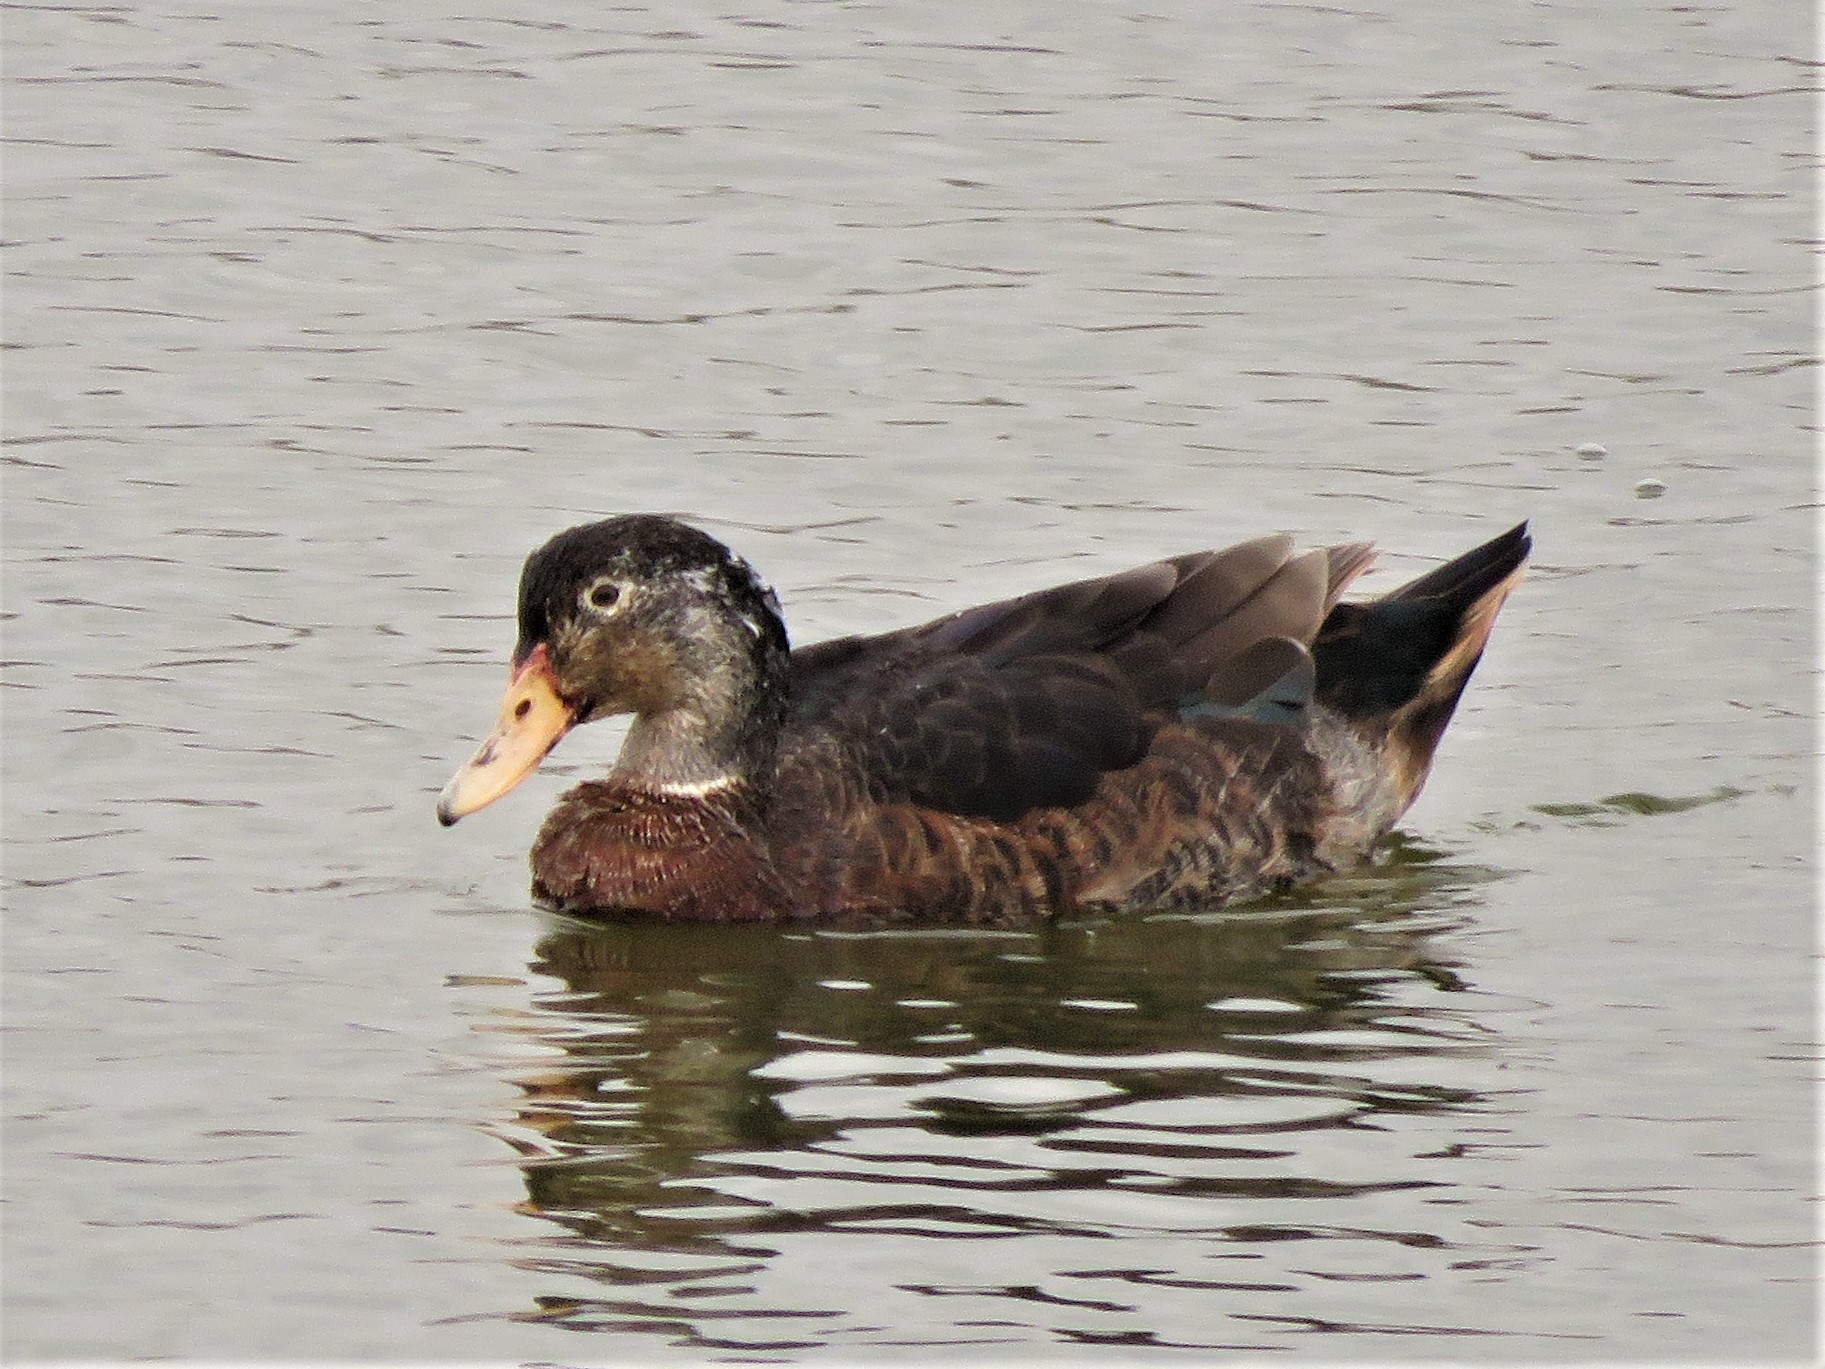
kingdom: Animalia
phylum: Chordata
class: Aves
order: Anseriformes
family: Anatidae
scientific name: Anatidae
